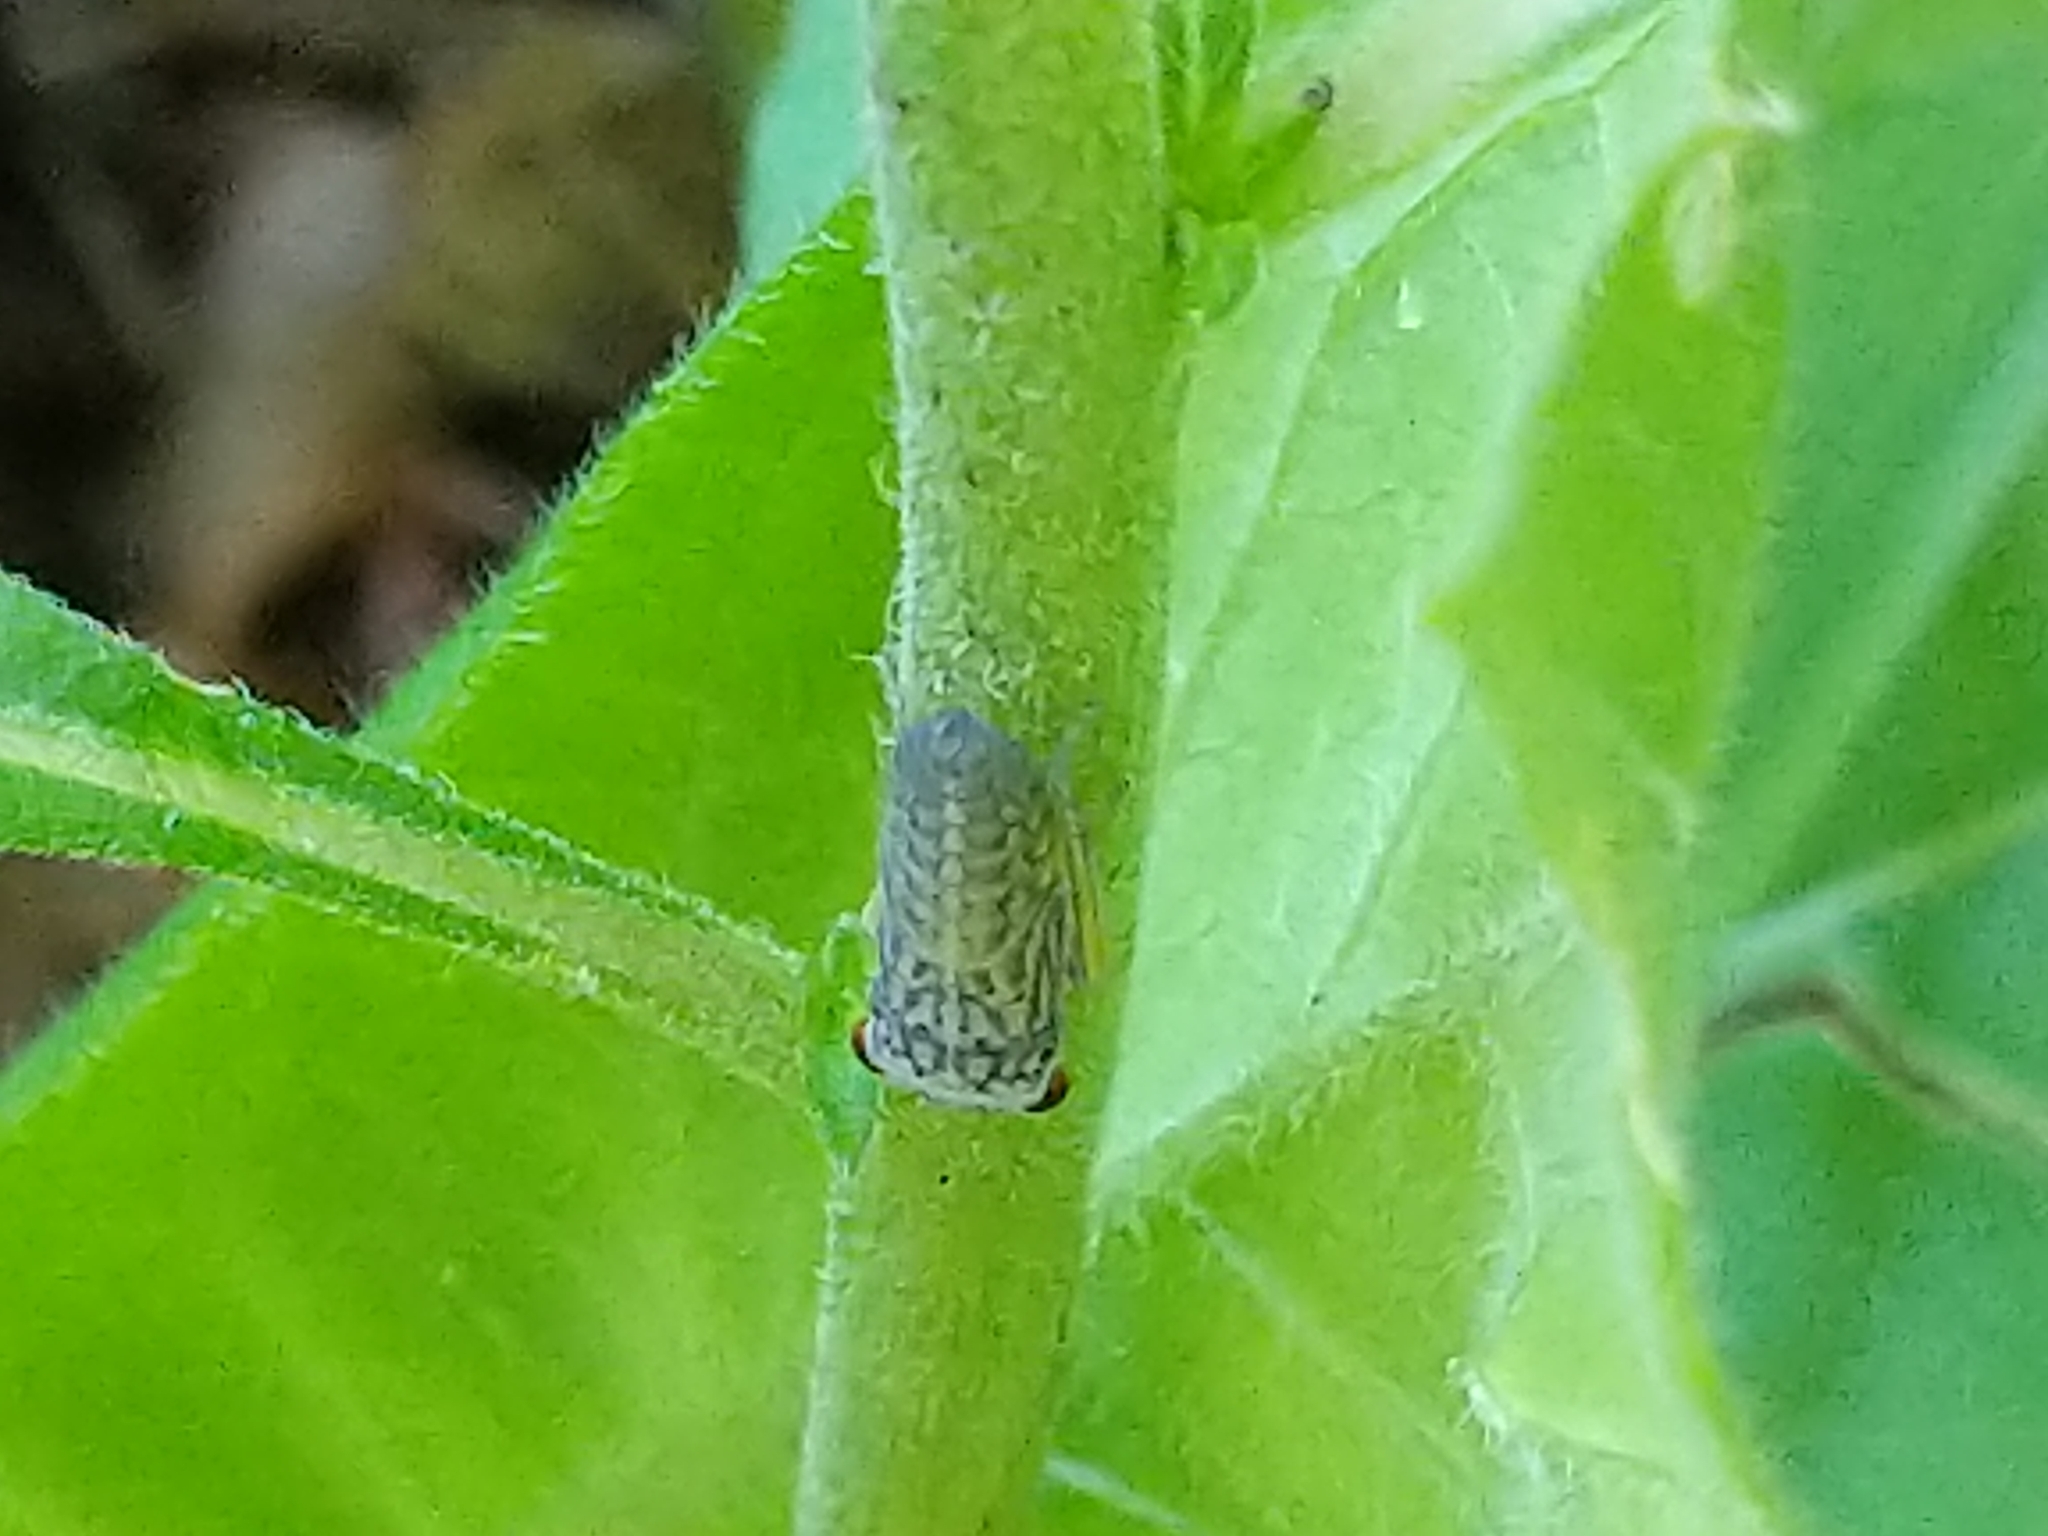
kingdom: Animalia
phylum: Arthropoda
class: Insecta
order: Hemiptera
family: Cicadellidae
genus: Oncometopia
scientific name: Oncometopia orbona
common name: Broad-headed sharpshooter
